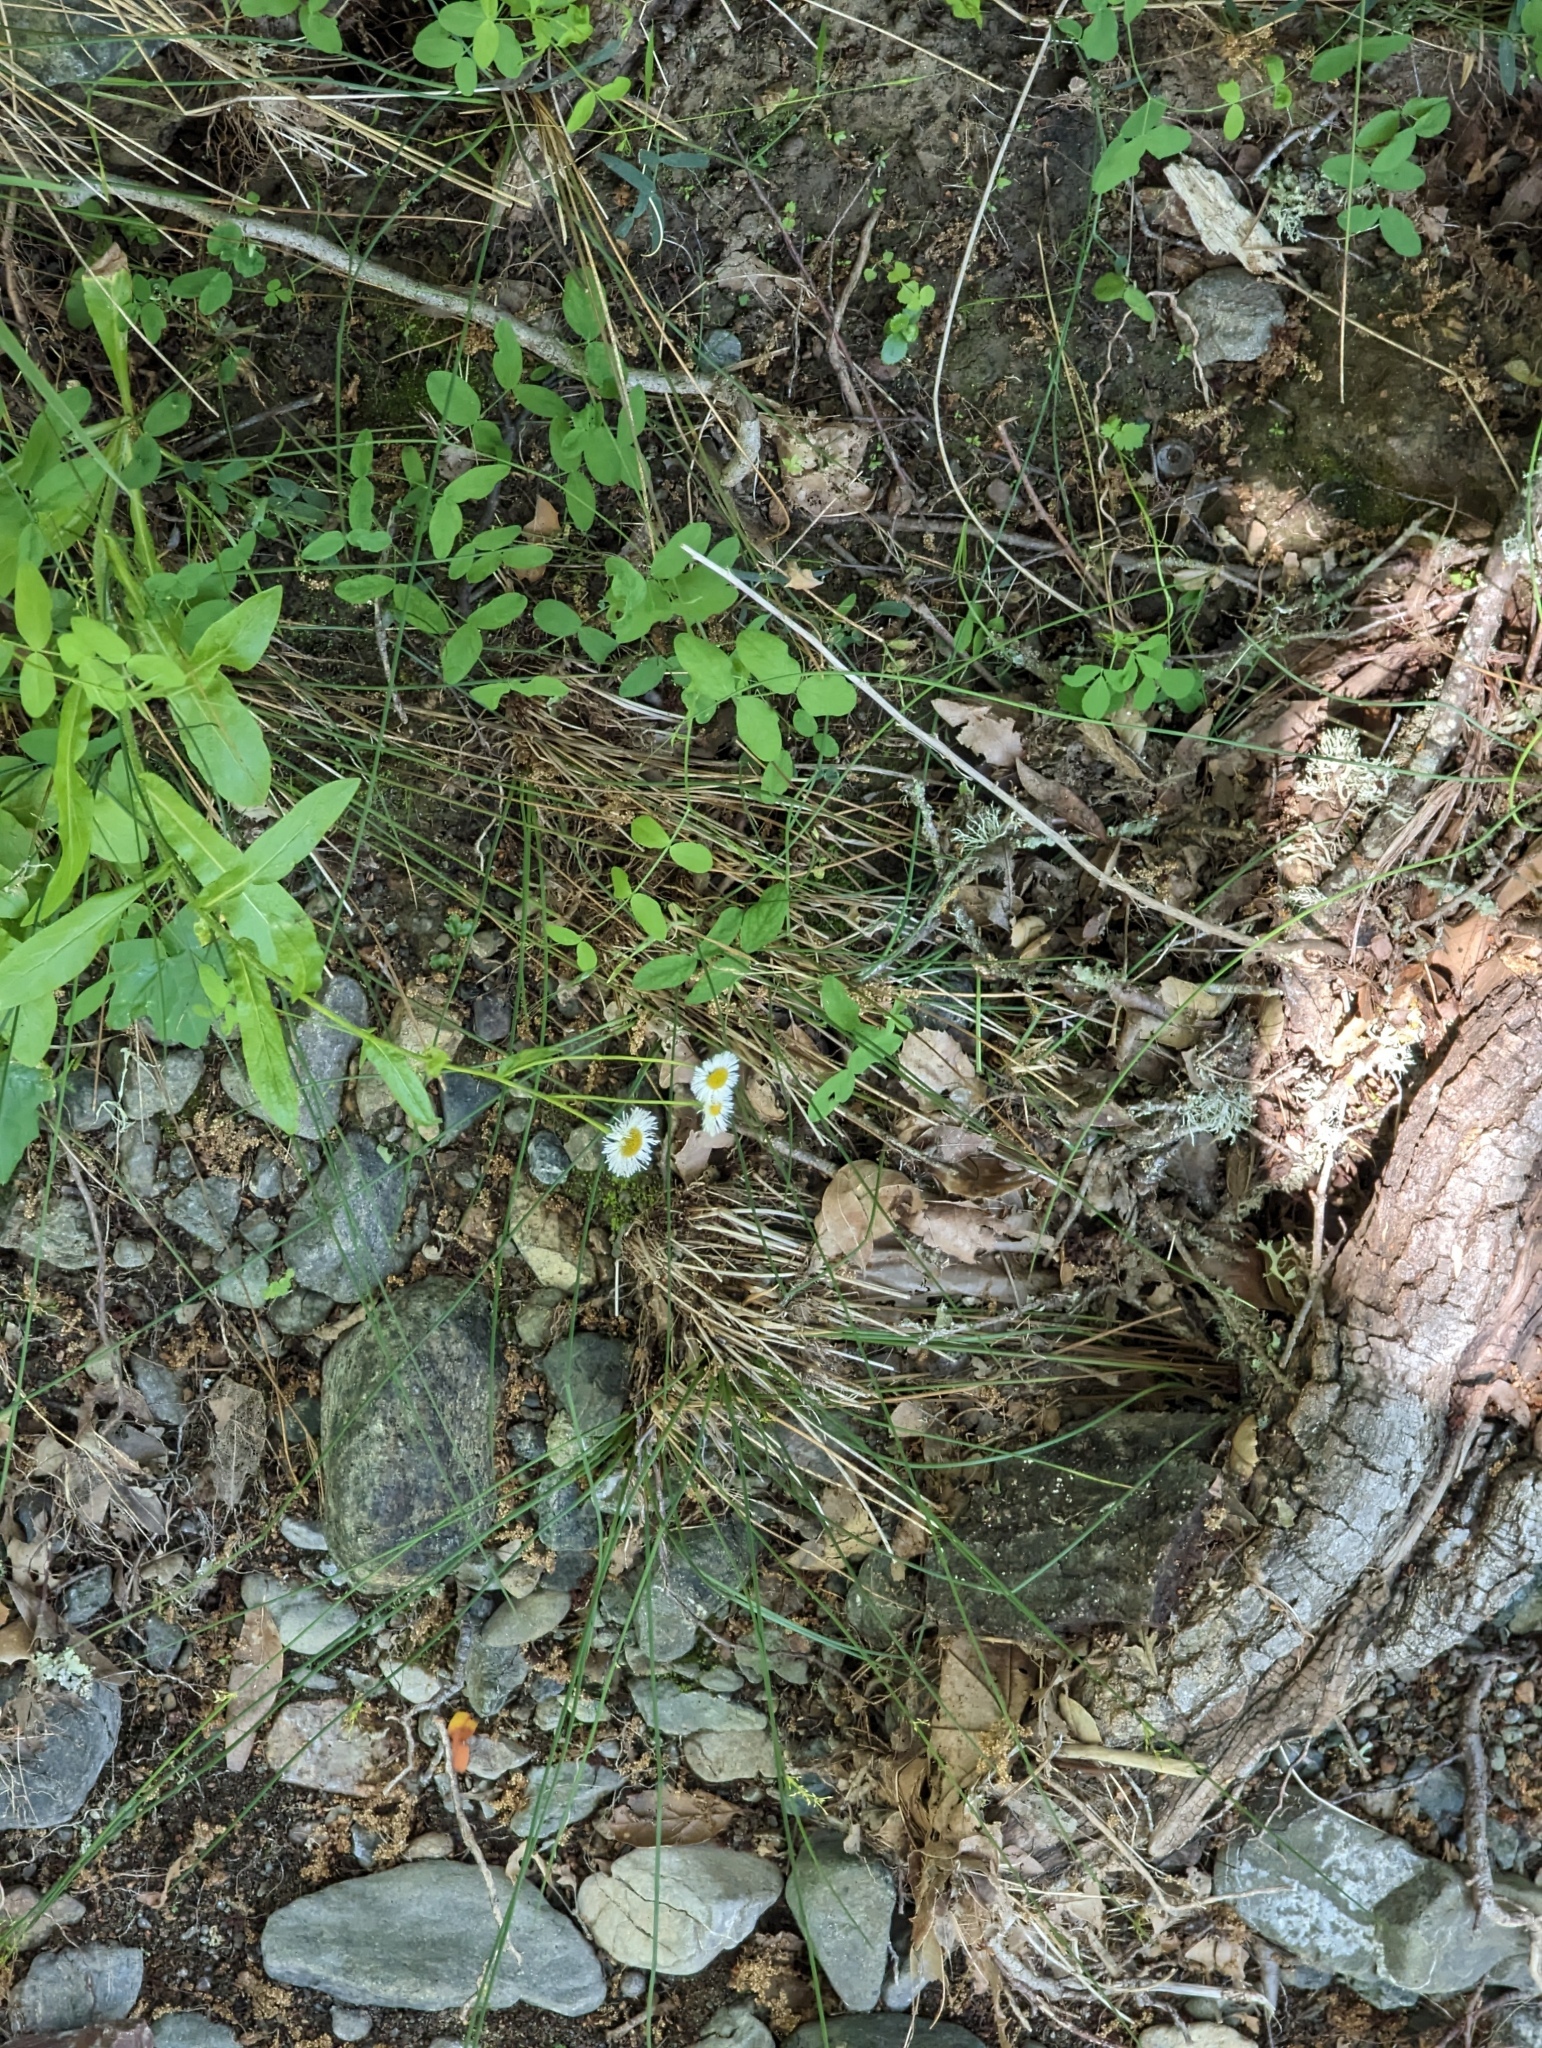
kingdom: Plantae
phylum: Tracheophyta
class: Magnoliopsida
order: Asterales
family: Asteraceae
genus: Erigeron
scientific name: Erigeron philadelphicus
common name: Robin's-plantain
